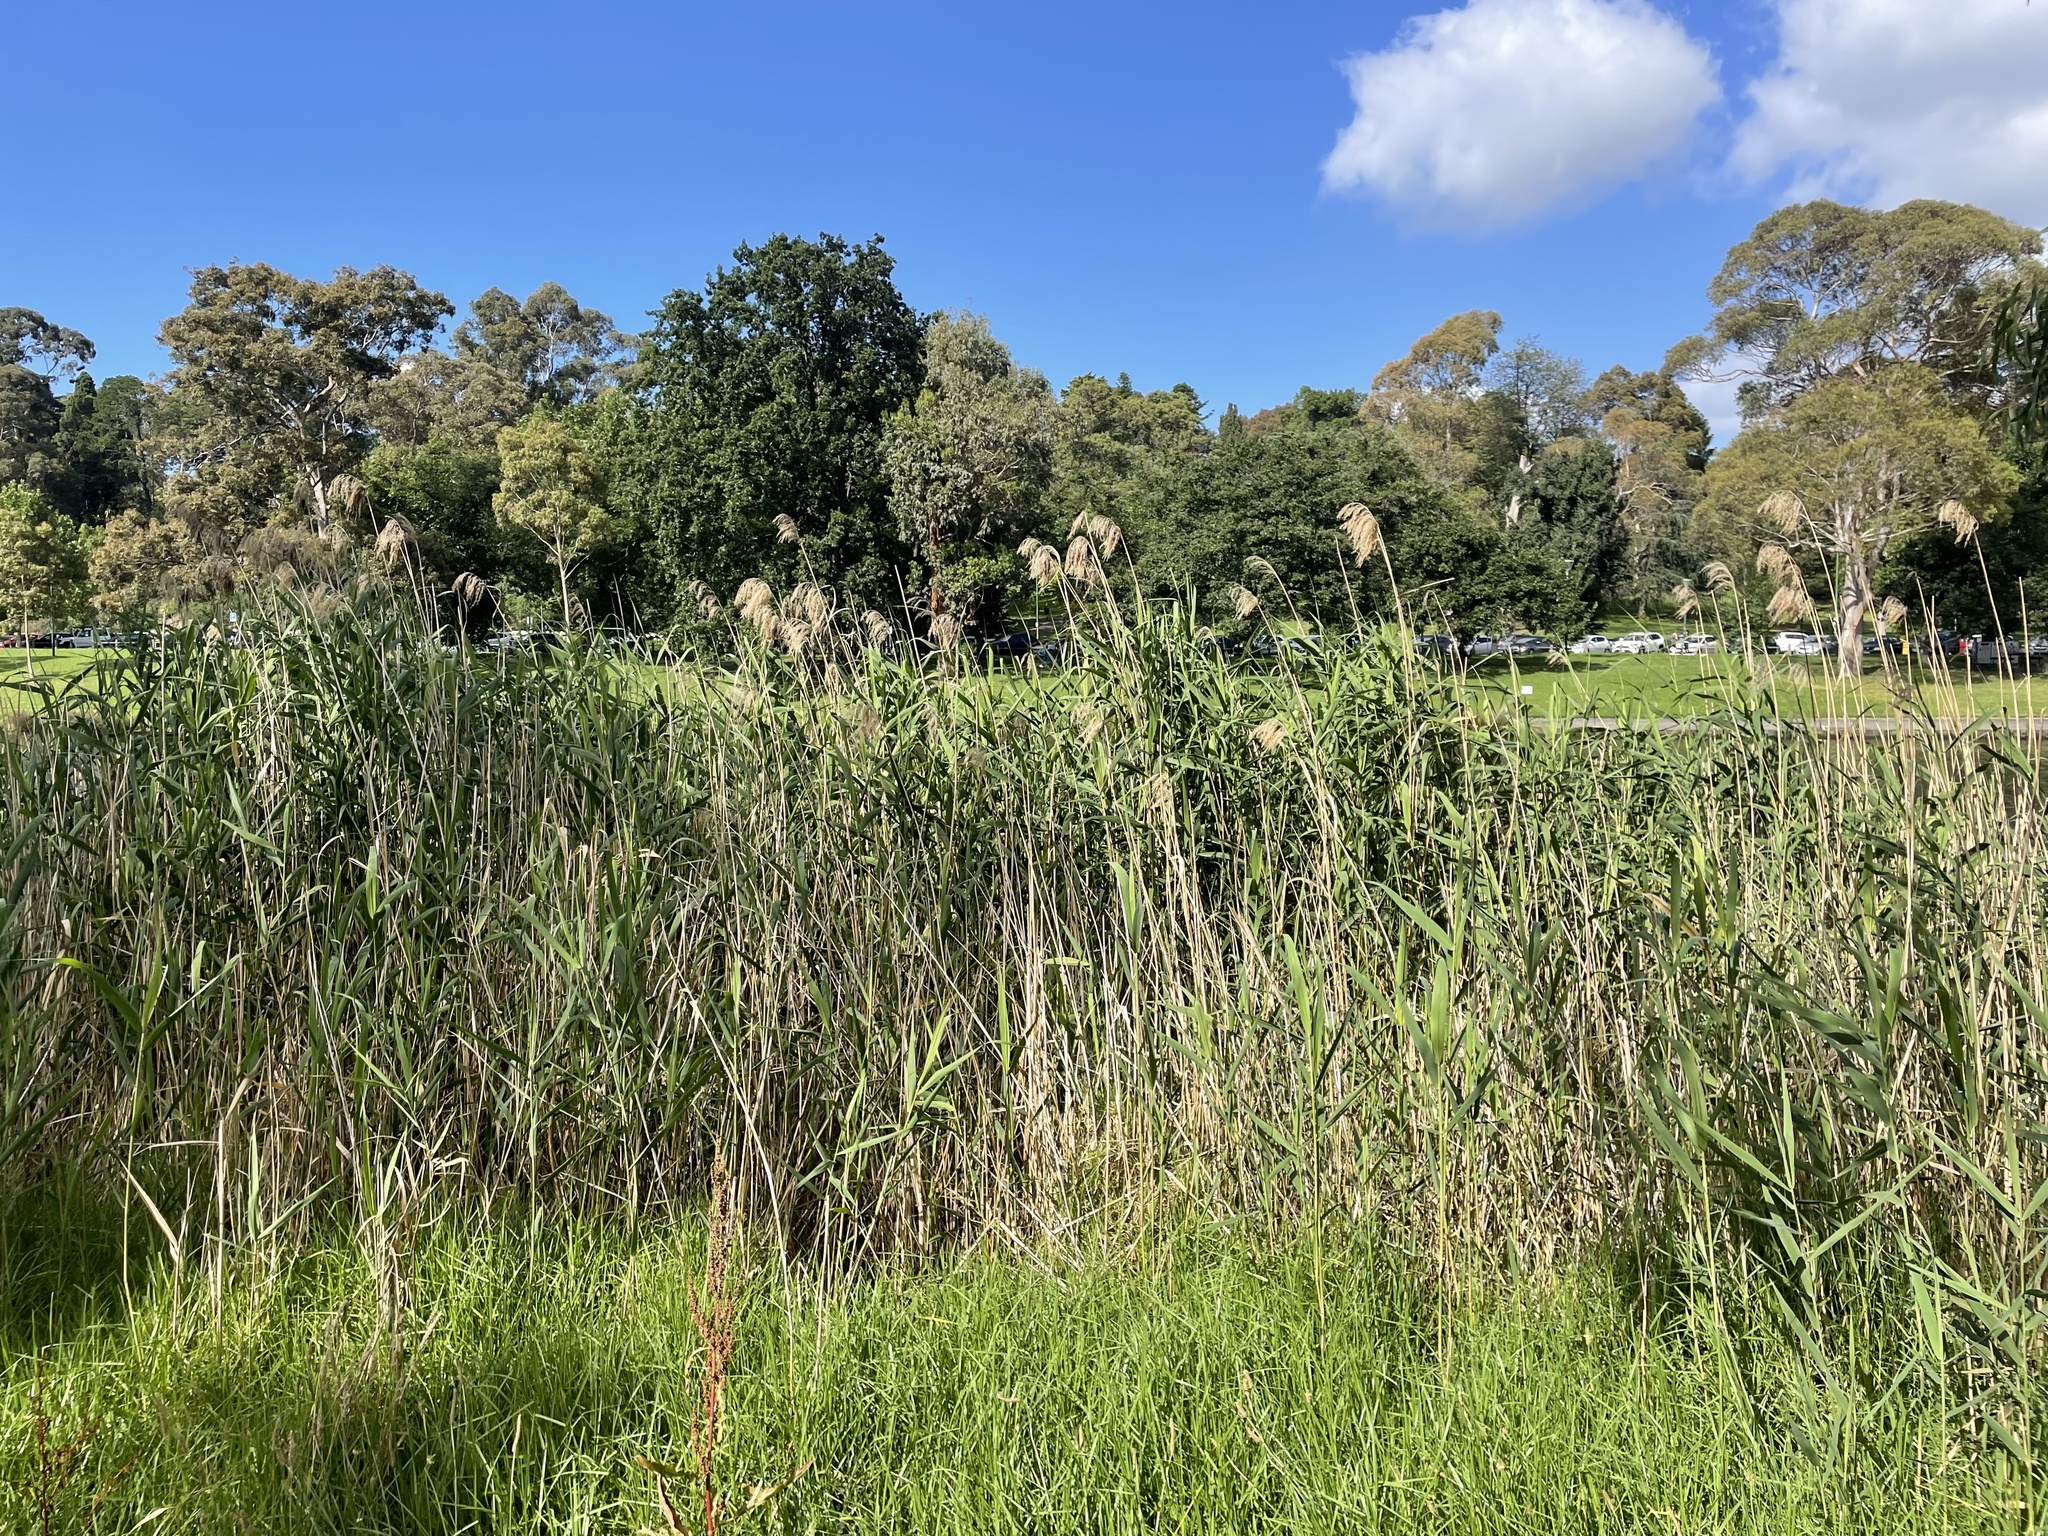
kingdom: Plantae
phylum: Tracheophyta
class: Liliopsida
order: Poales
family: Poaceae
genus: Phragmites
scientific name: Phragmites australis
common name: Common reed
